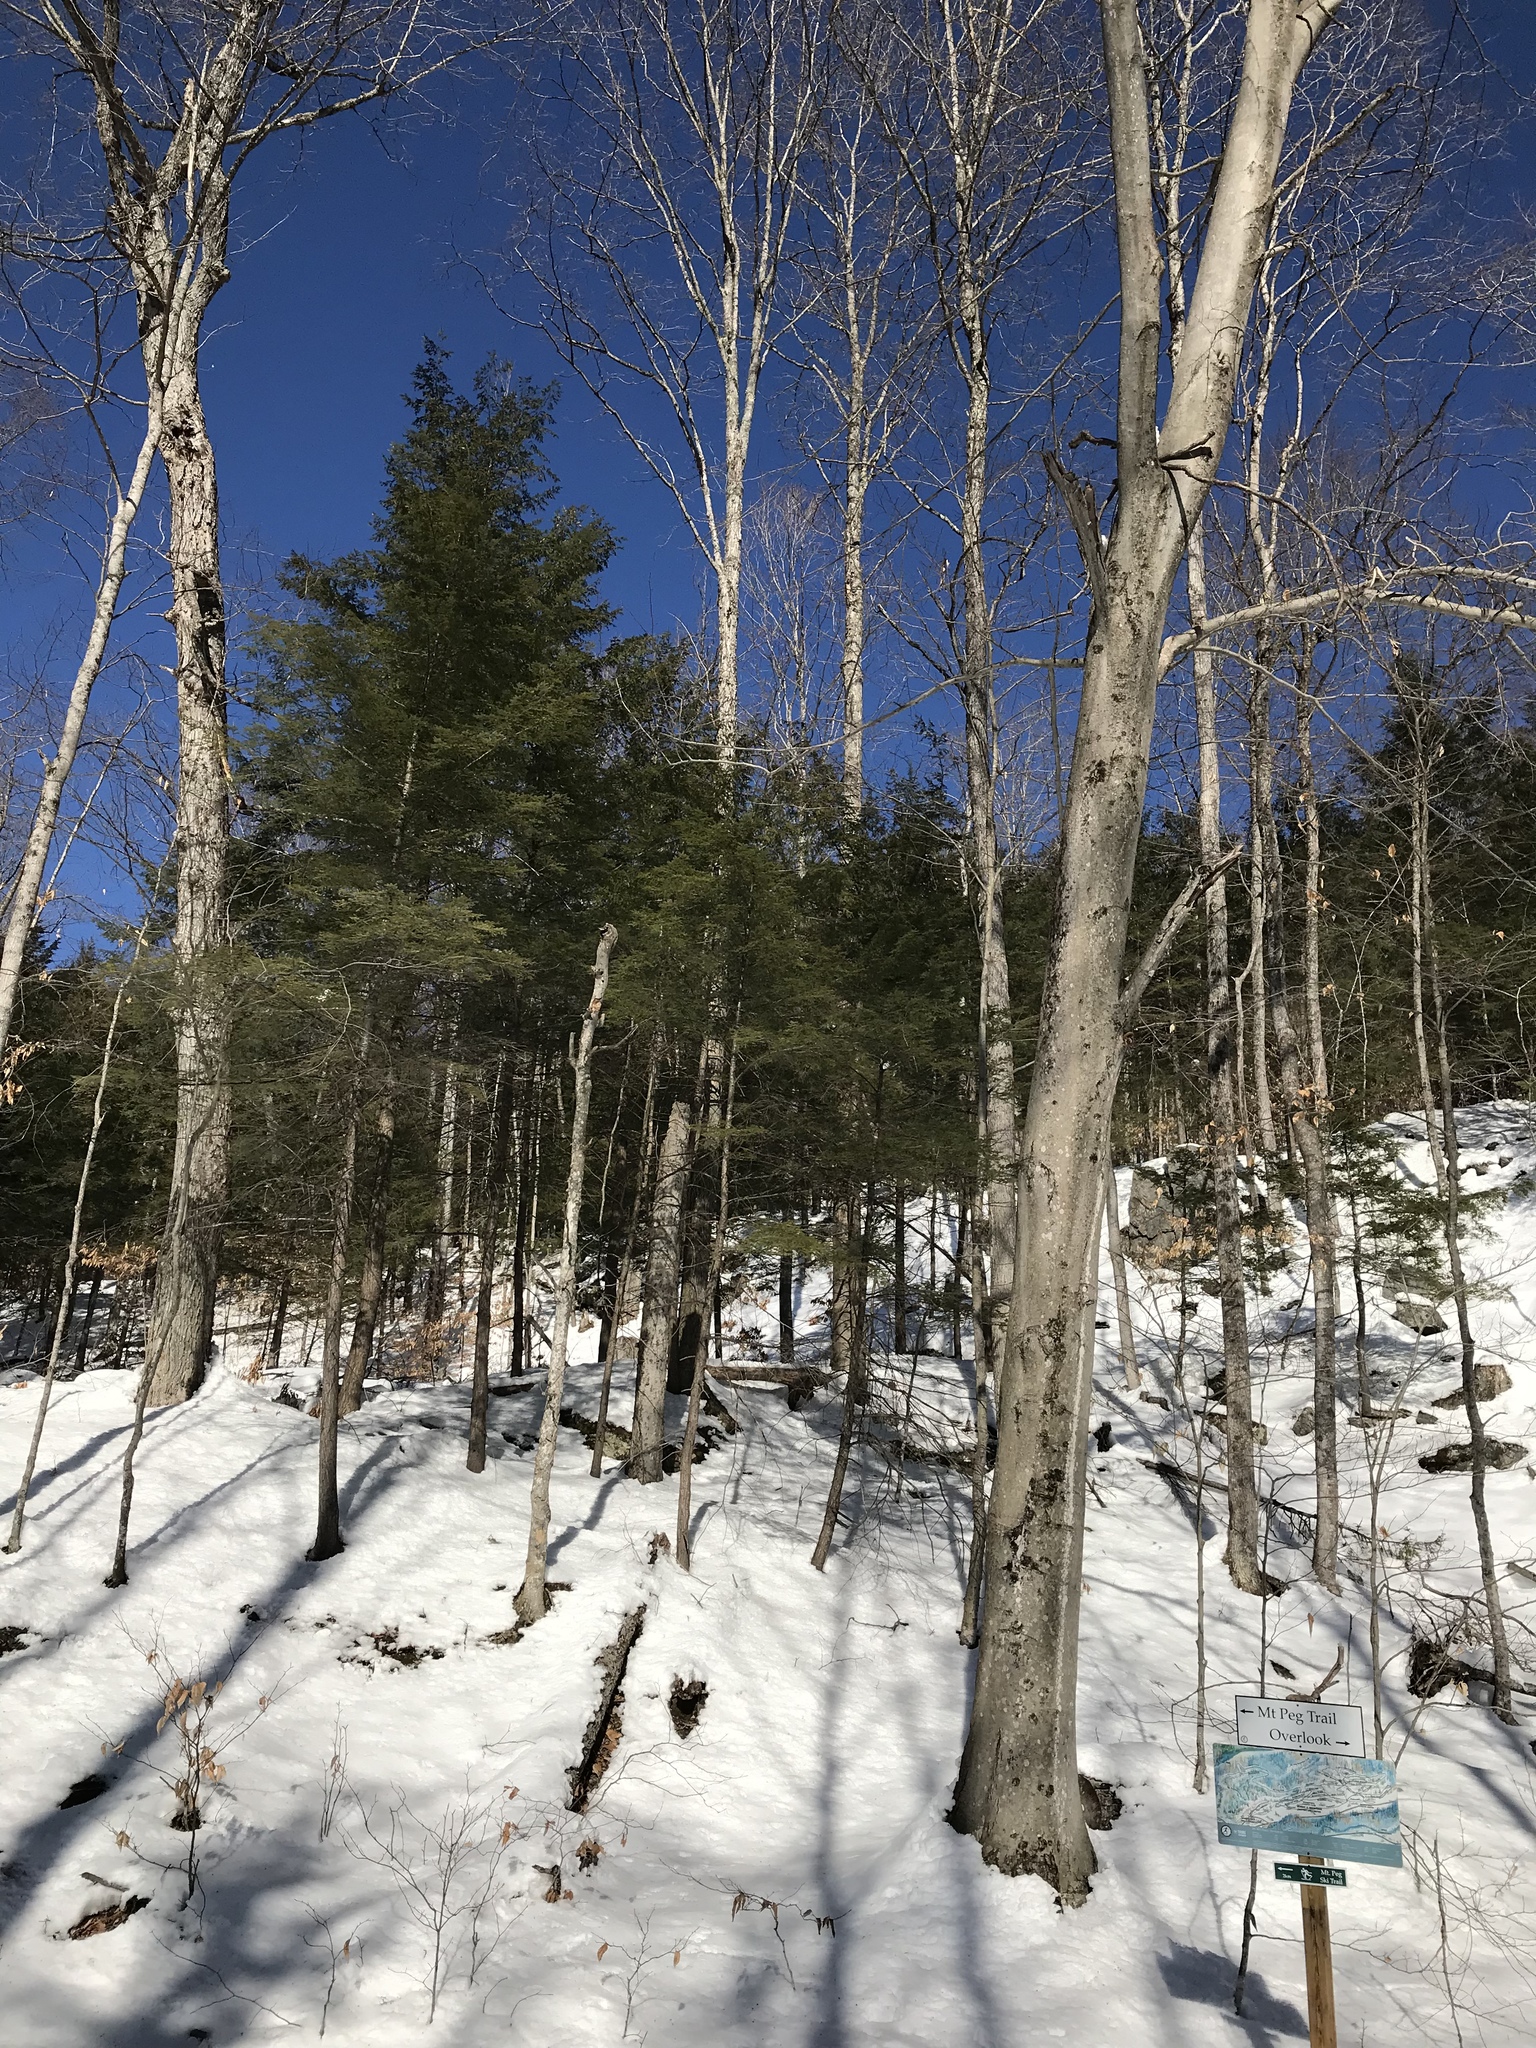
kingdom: Plantae
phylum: Tracheophyta
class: Pinopsida
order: Pinales
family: Pinaceae
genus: Tsuga
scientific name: Tsuga canadensis
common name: Eastern hemlock
